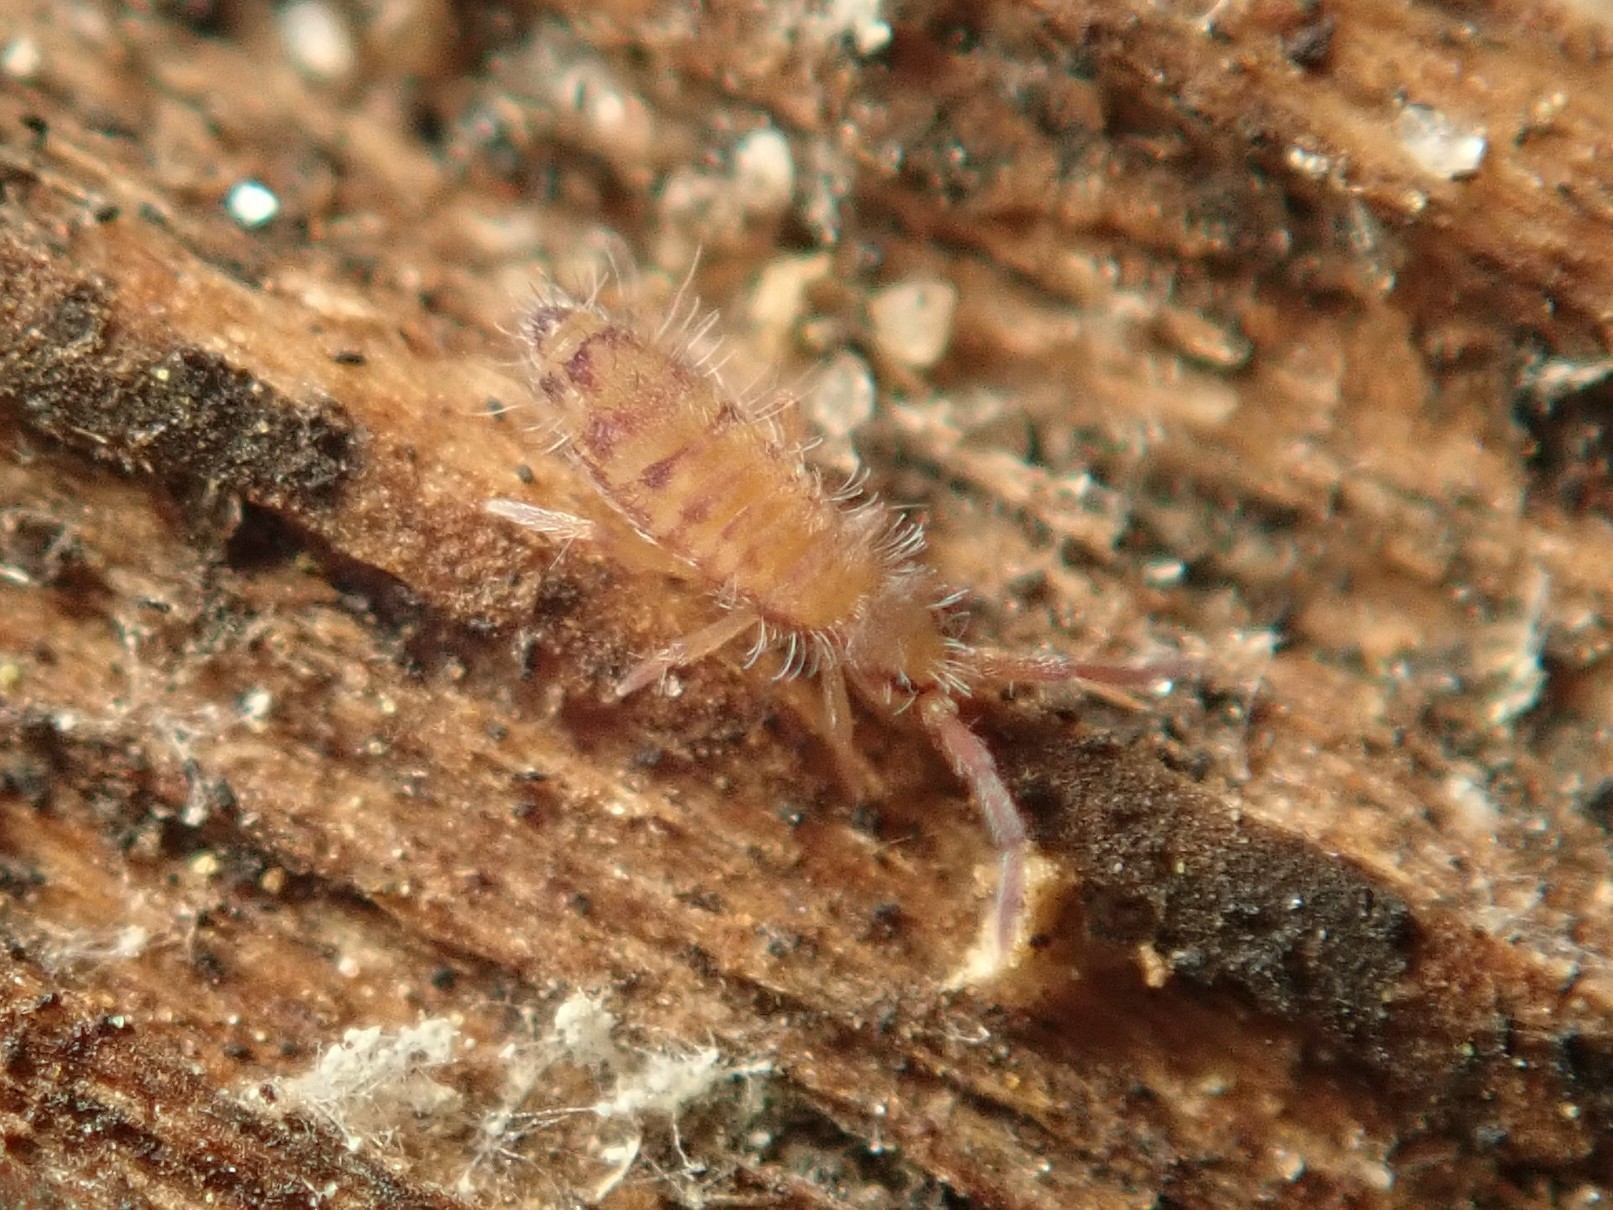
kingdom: Animalia
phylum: Arthropoda
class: Collembola
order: Entomobryomorpha
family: Entomobryidae
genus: Entomobrya
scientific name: Entomobrya multifasciata
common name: Springtail
